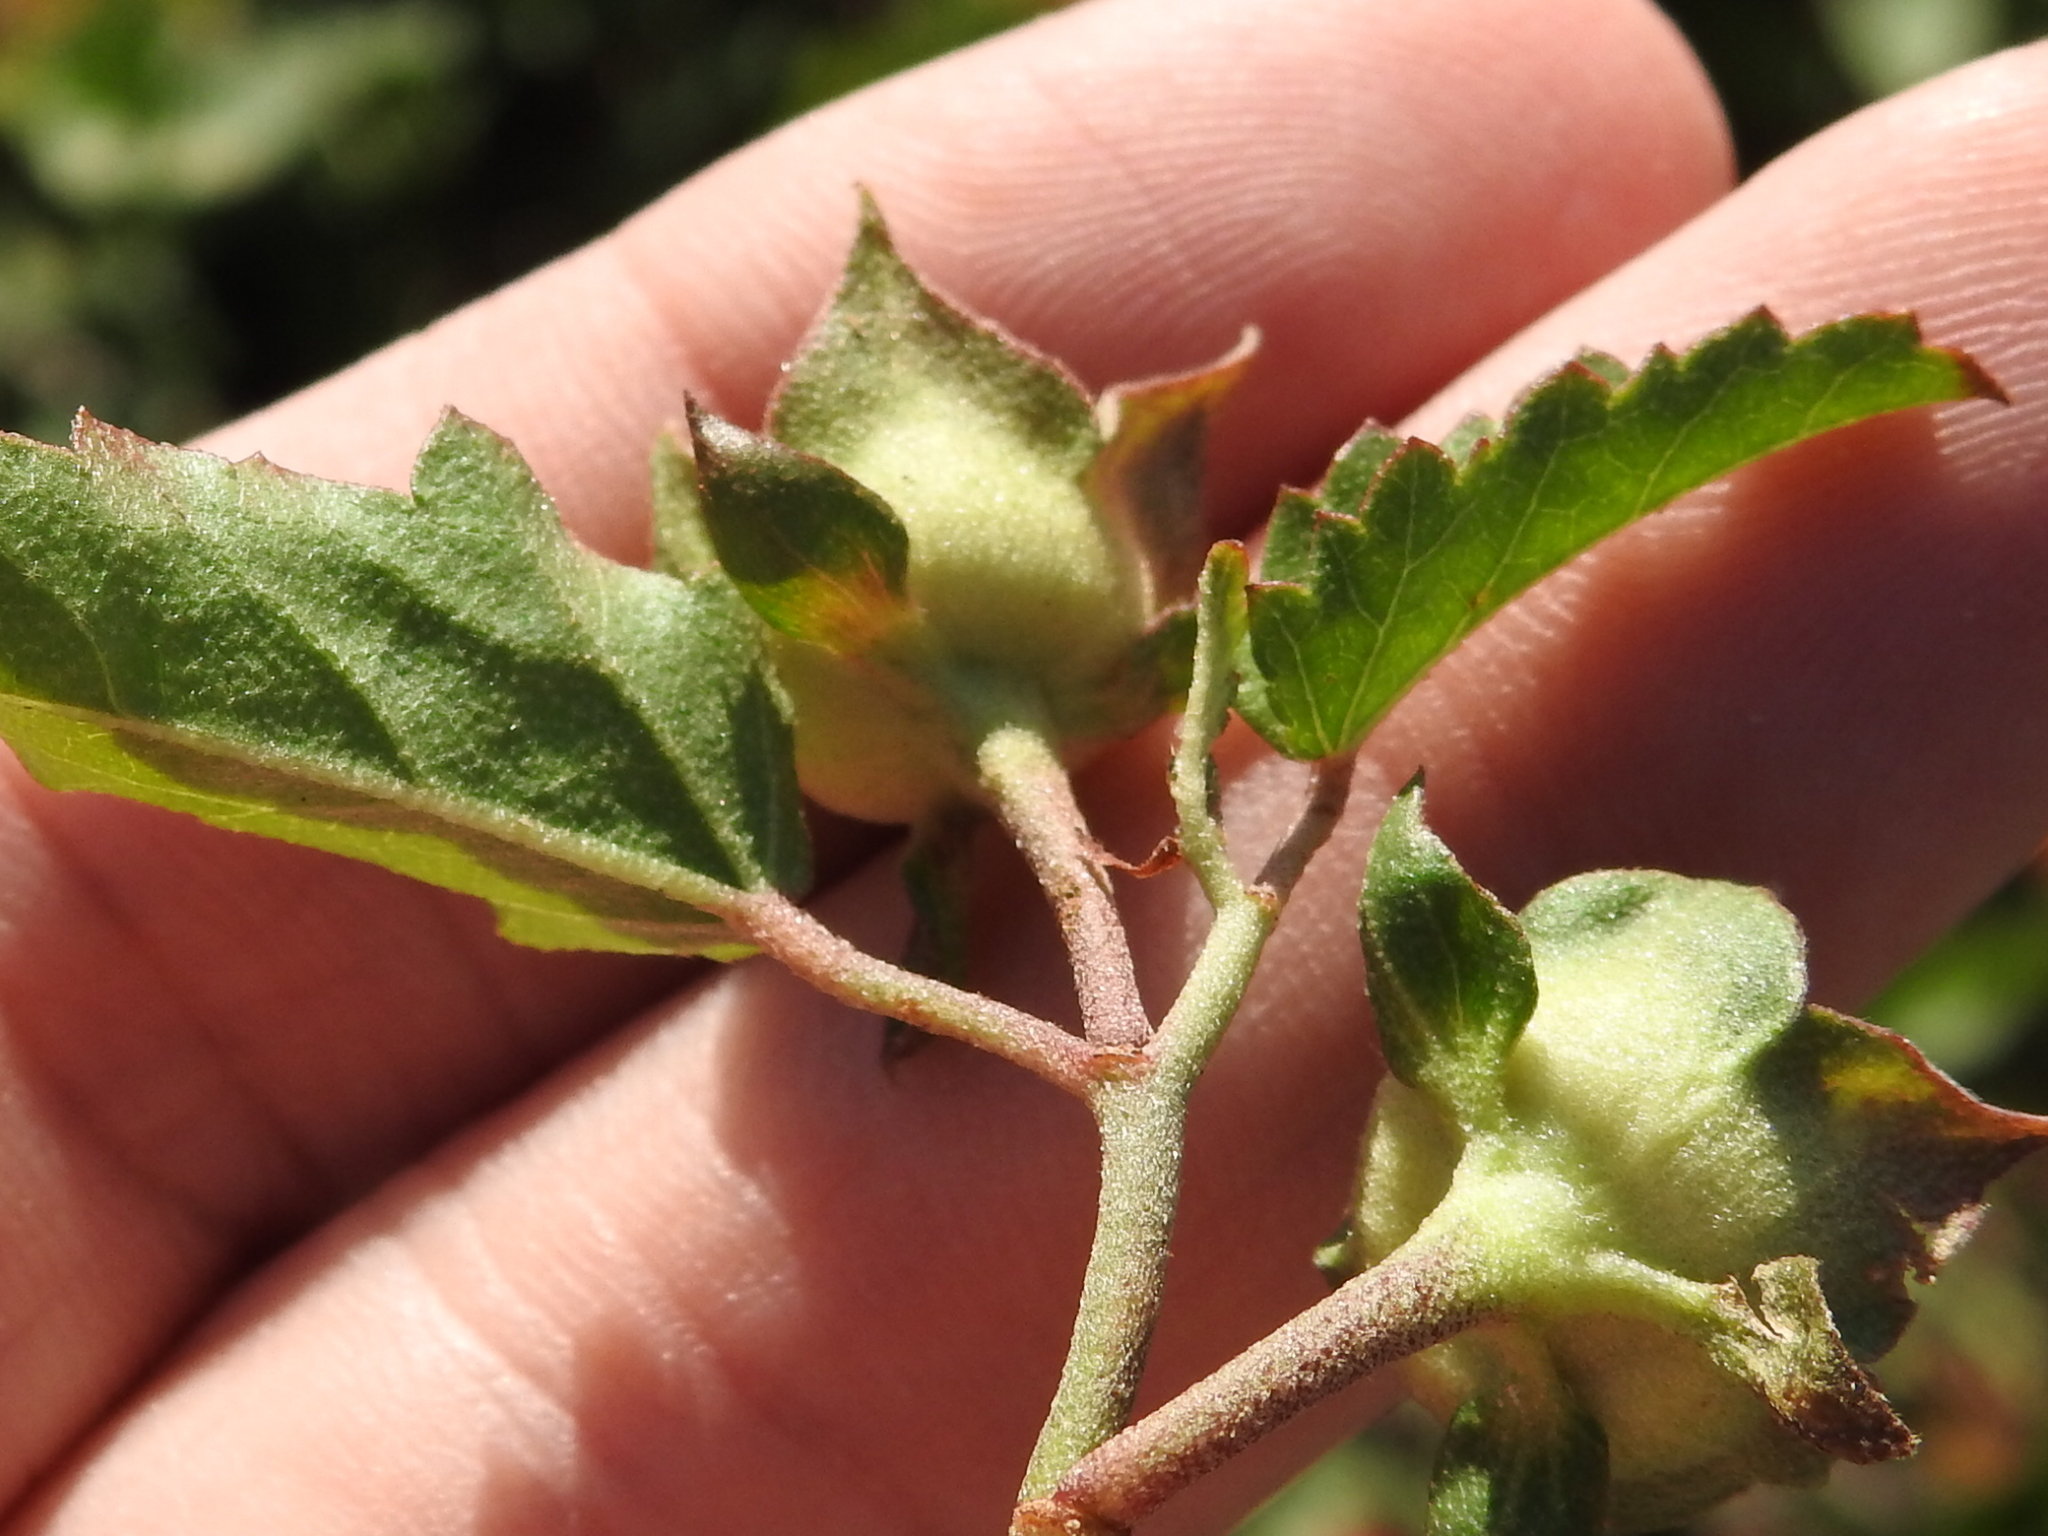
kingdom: Plantae
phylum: Tracheophyta
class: Magnoliopsida
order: Malvales
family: Malvaceae
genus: Malvastrum
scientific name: Malvastrum aurantiacum
